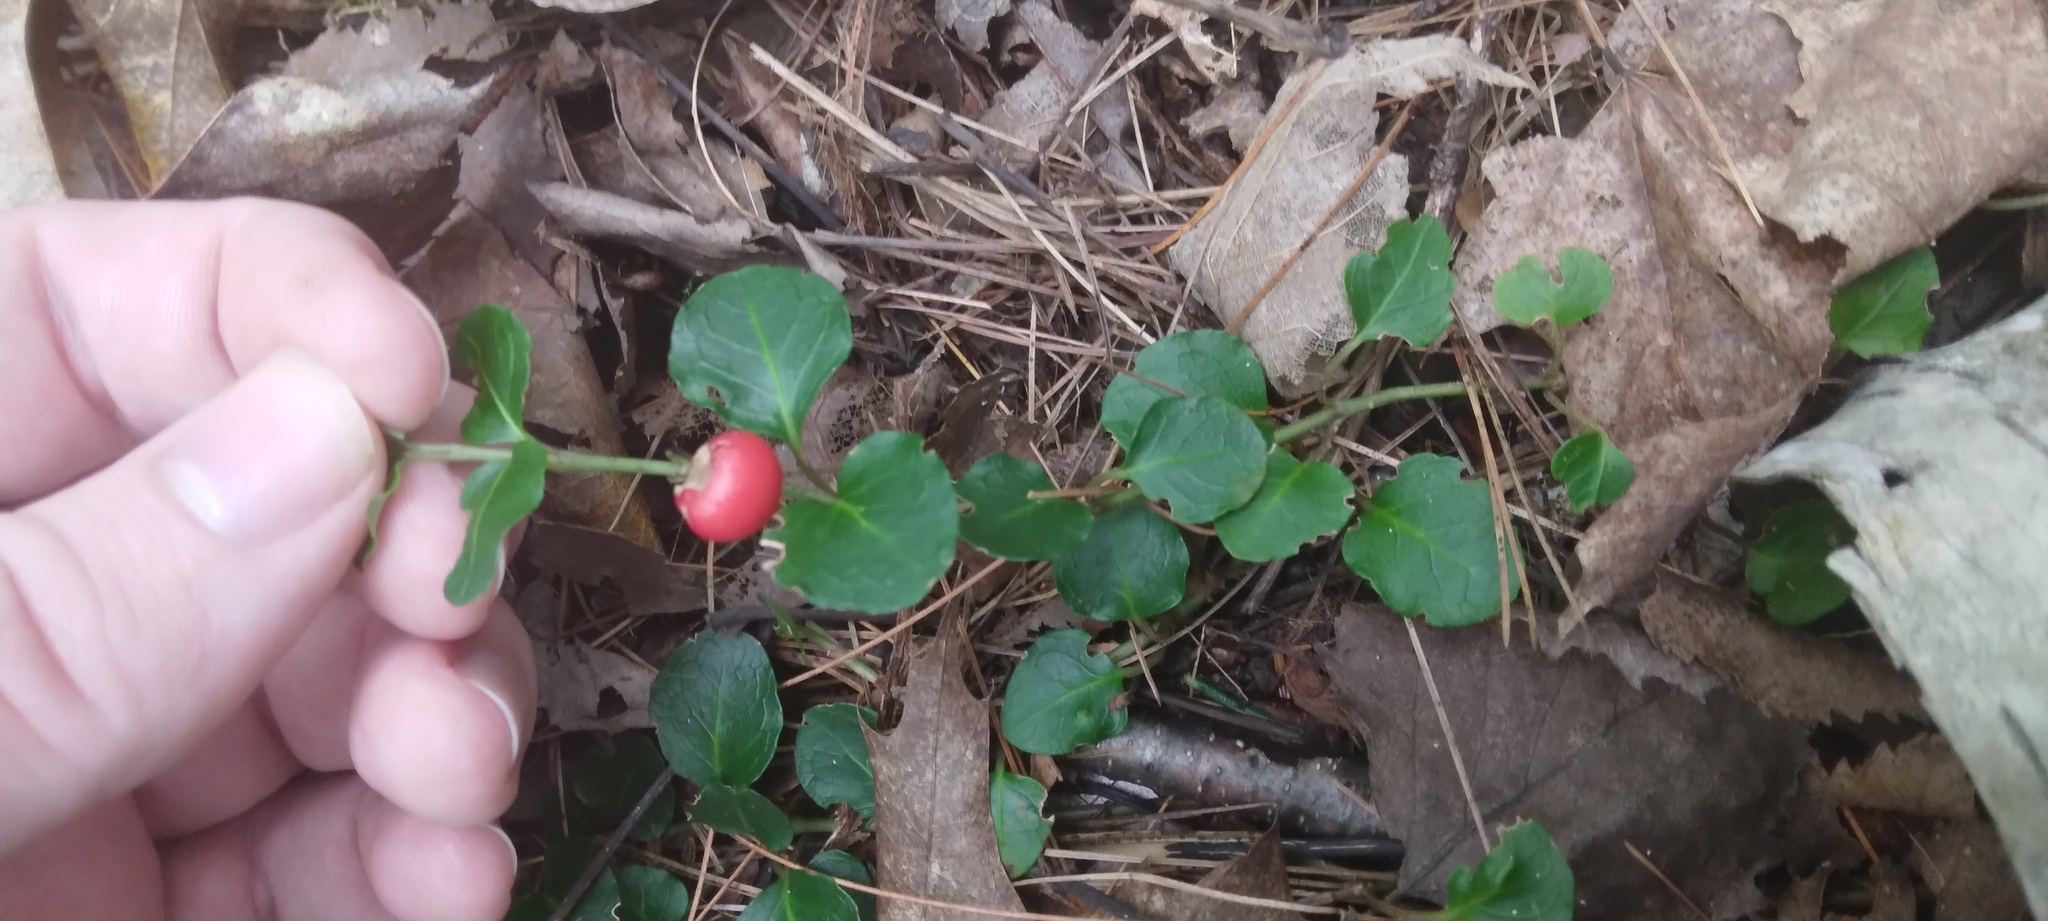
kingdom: Plantae
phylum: Tracheophyta
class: Magnoliopsida
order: Gentianales
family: Rubiaceae
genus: Mitchella
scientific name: Mitchella repens
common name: Partridge-berry
